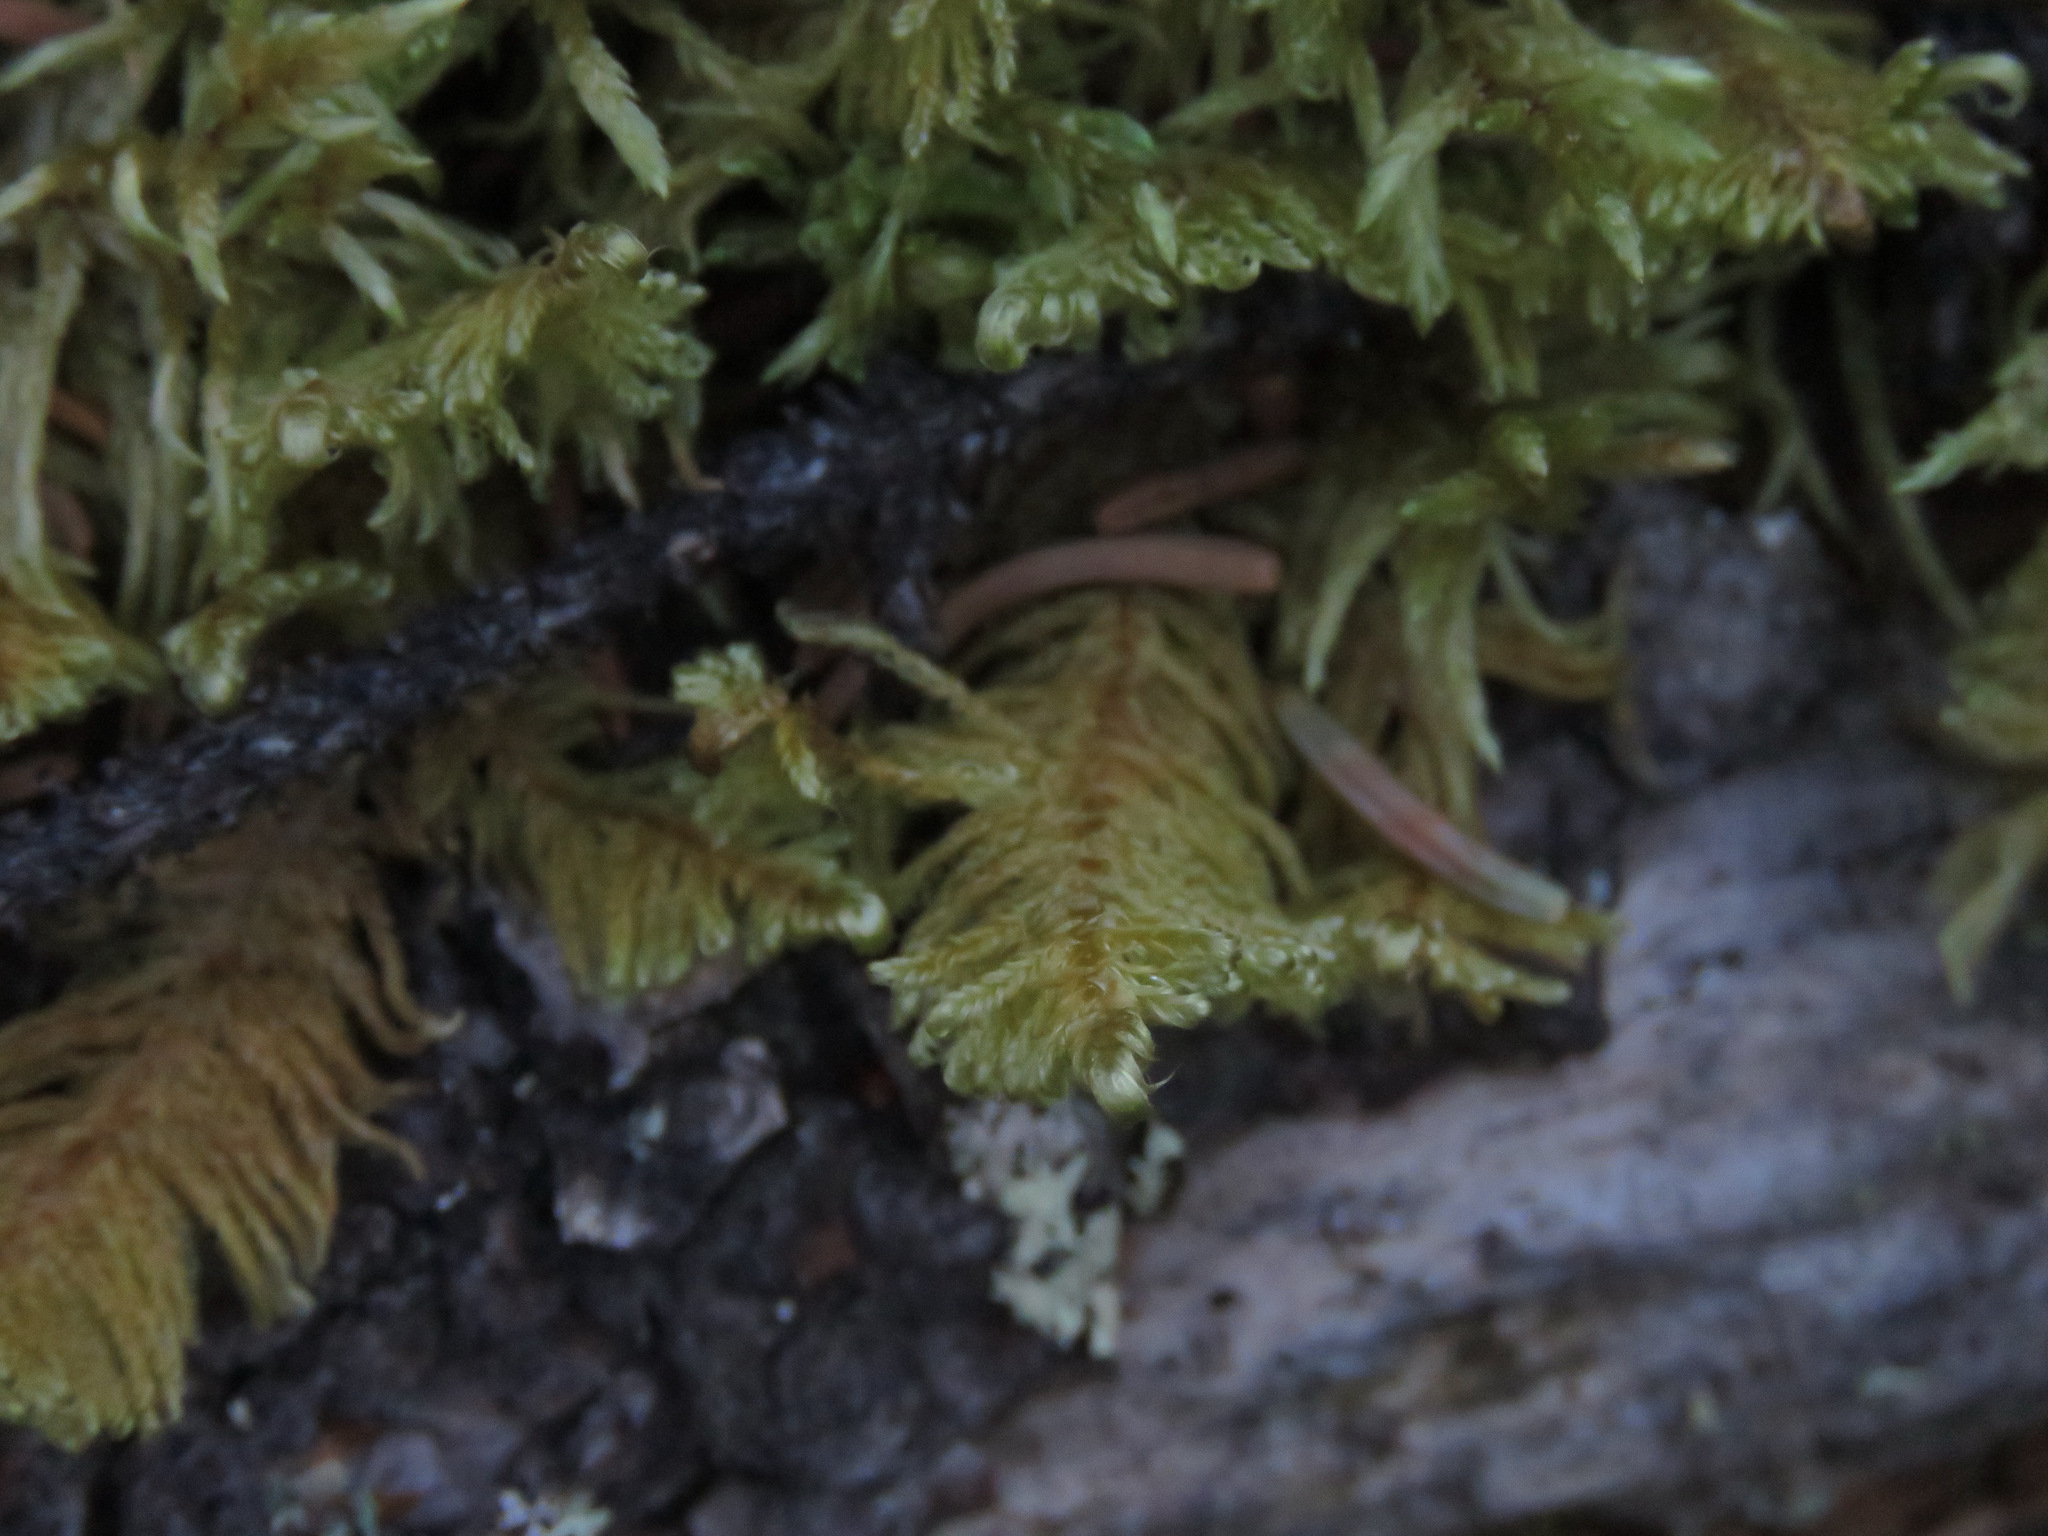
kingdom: Plantae
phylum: Bryophyta
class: Bryopsida
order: Hypnales
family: Pylaisiaceae
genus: Ptilium
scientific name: Ptilium crista-castrensis
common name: Knight's plume moss
